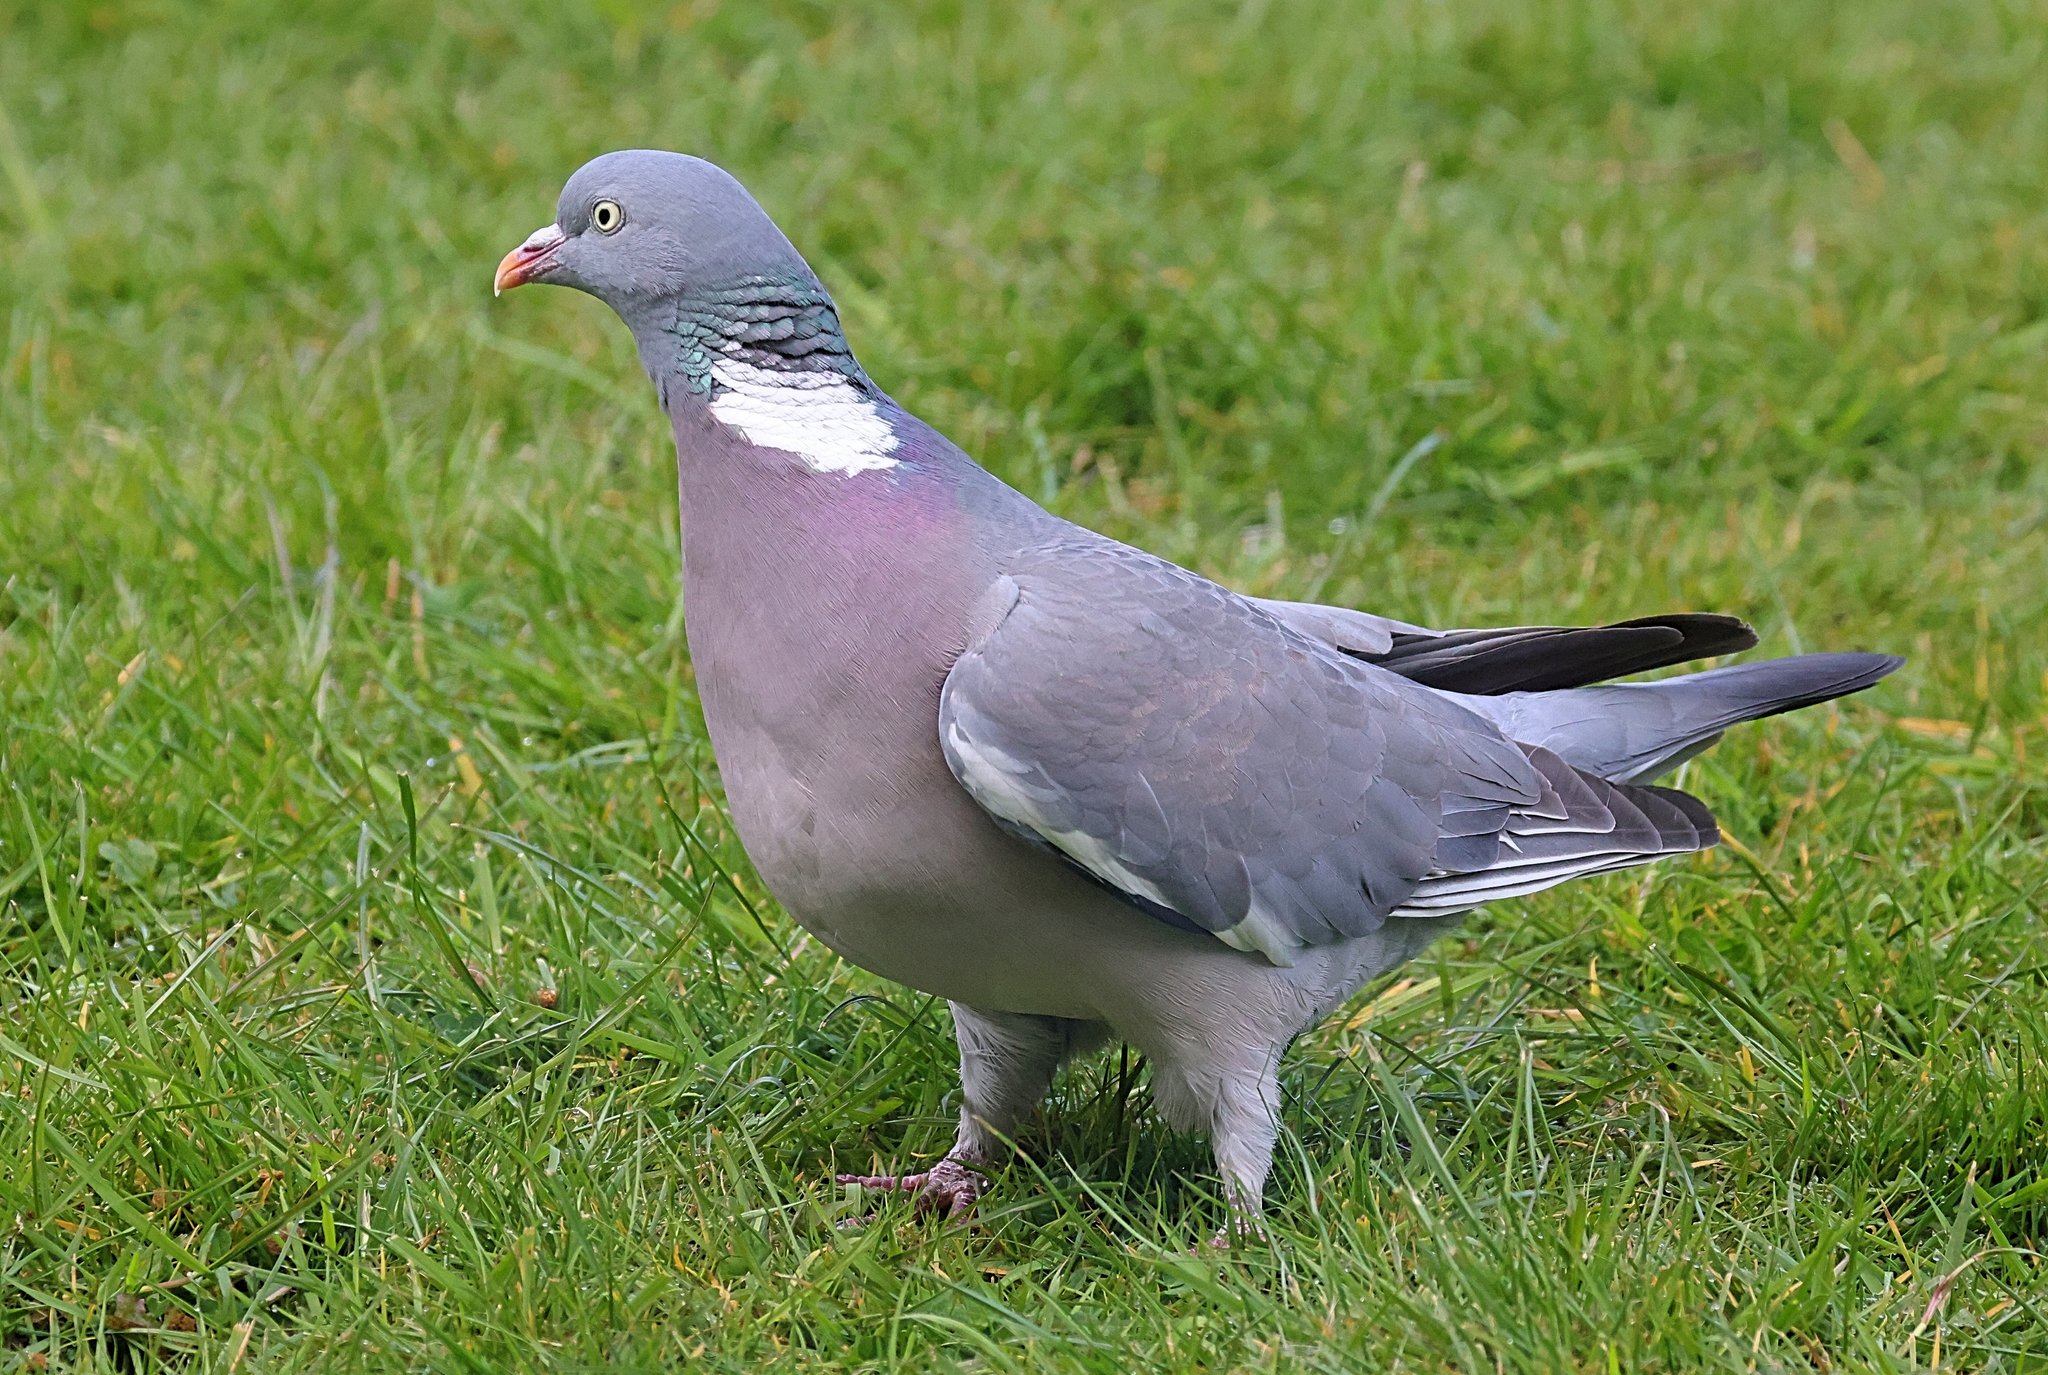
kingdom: Animalia
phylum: Chordata
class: Aves
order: Columbiformes
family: Columbidae
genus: Columba
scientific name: Columba palumbus
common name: Common wood pigeon
